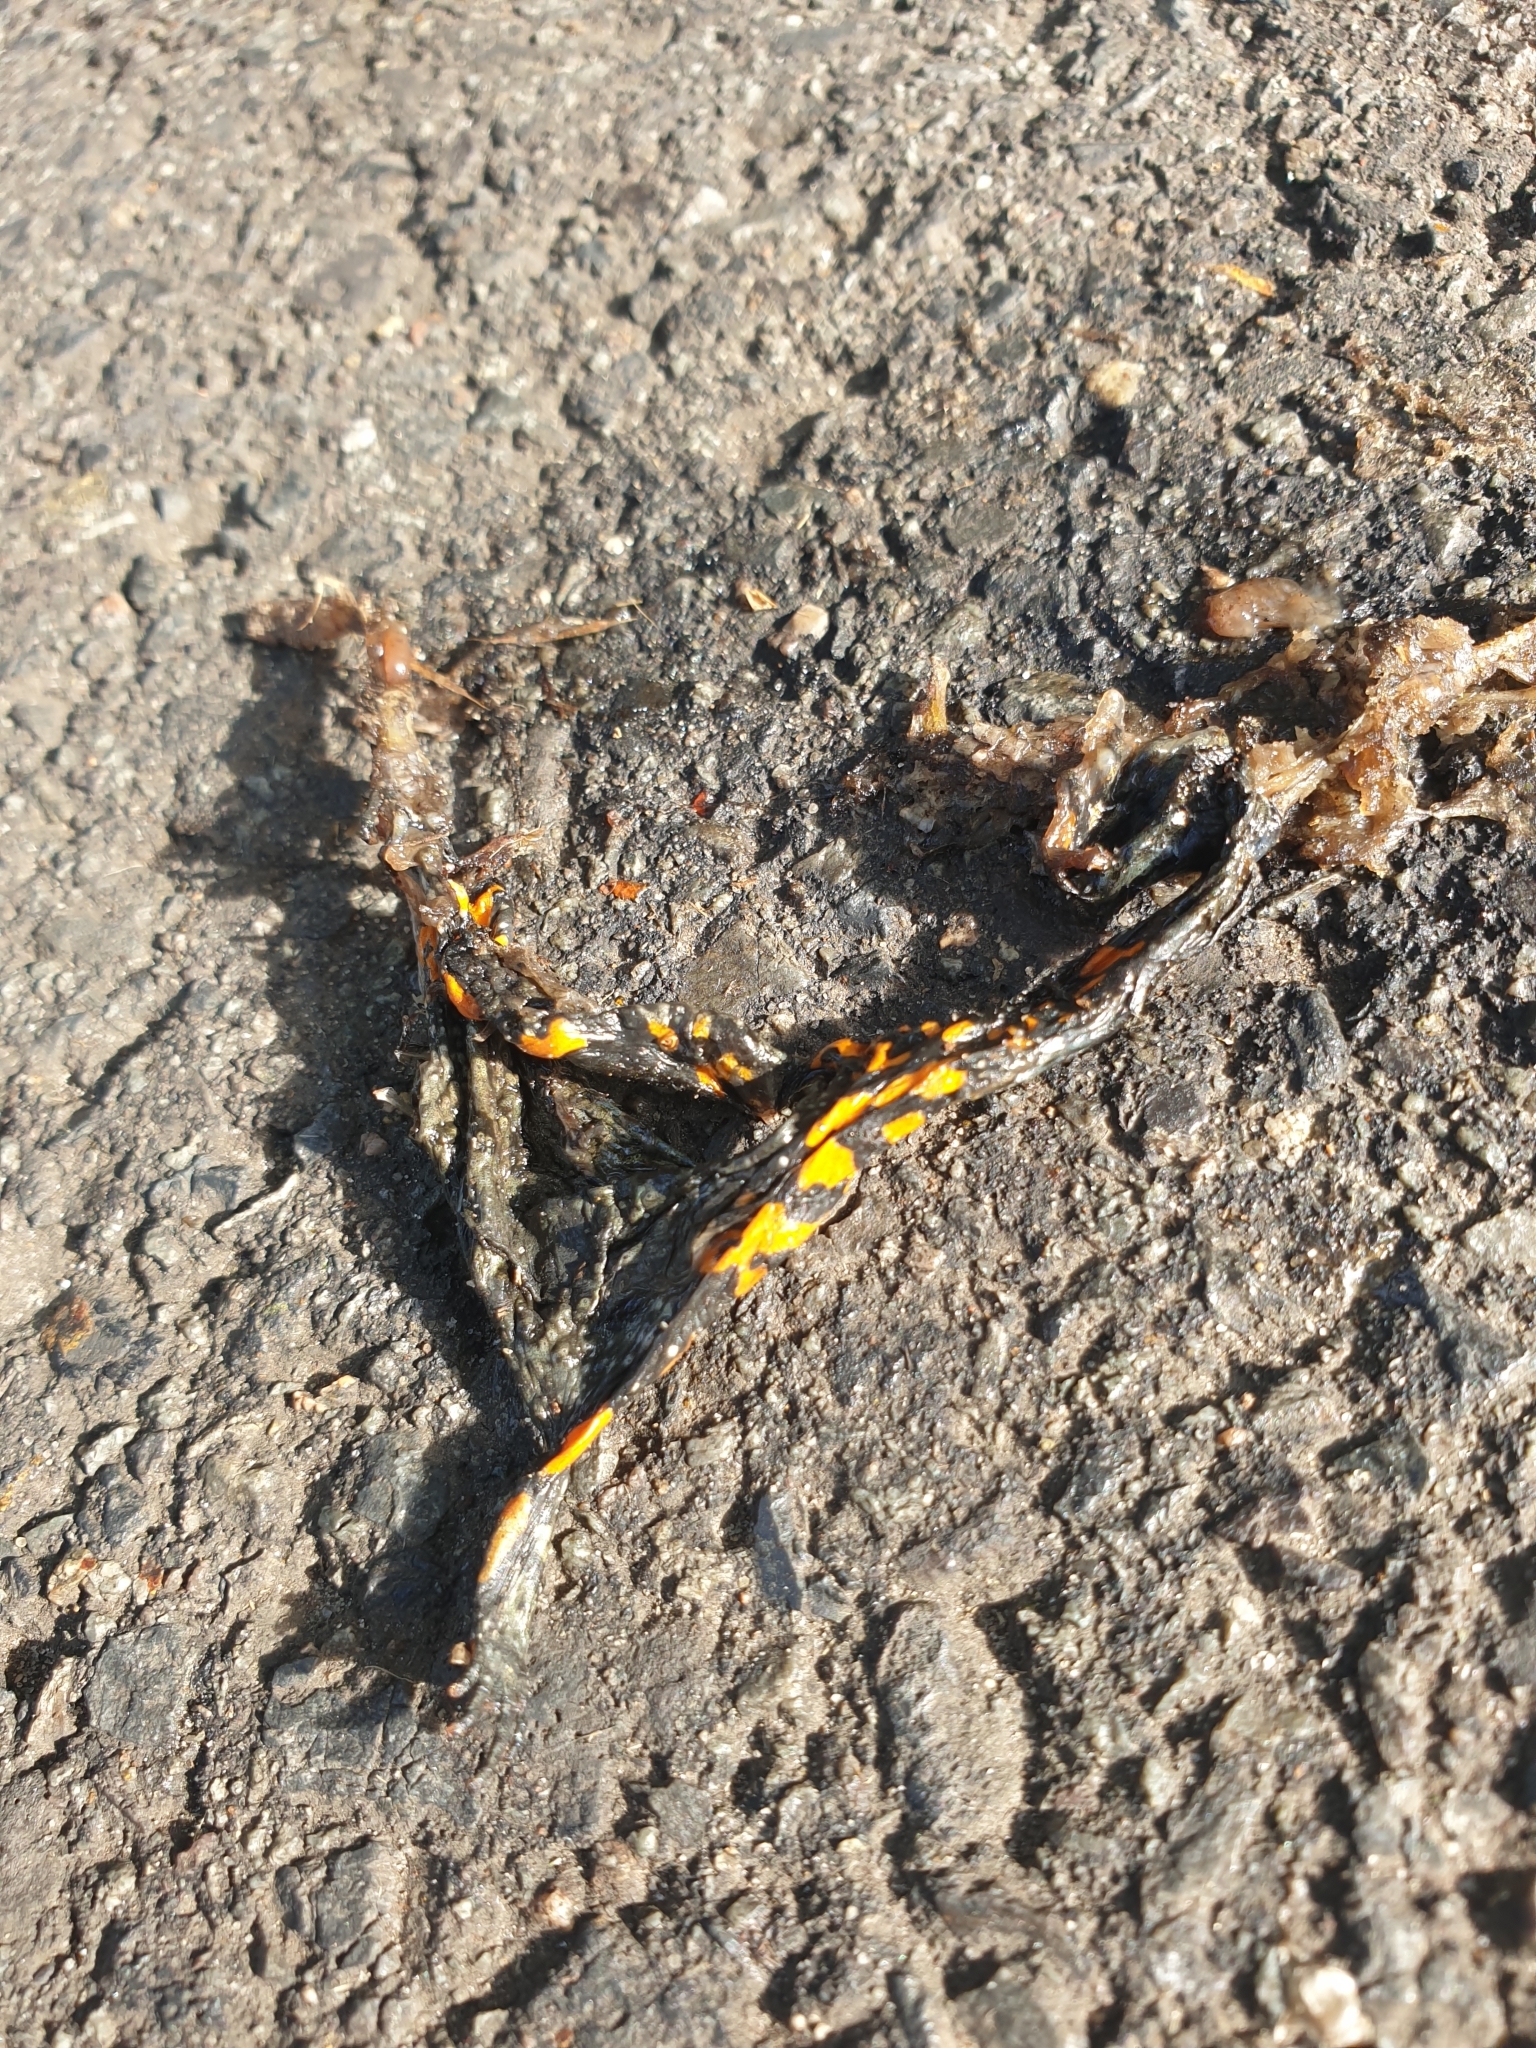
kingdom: Animalia
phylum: Chordata
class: Amphibia
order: Anura
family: Bombinatoridae
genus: Bombina
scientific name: Bombina bombina
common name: Fire-bellied toad
